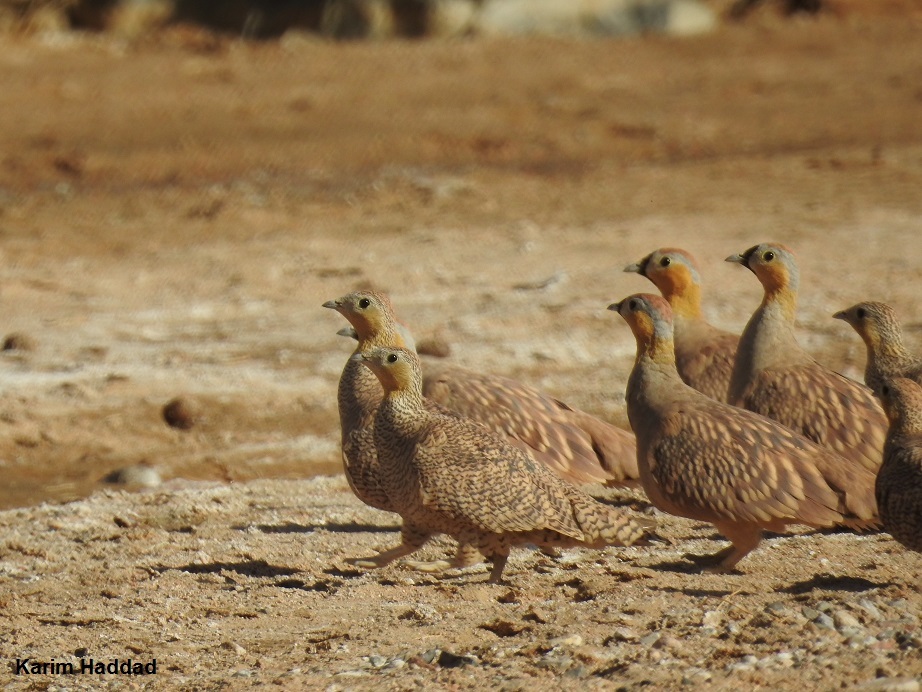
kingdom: Animalia
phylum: Chordata
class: Aves
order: Pteroclidiformes
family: Pteroclididae
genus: Pterocles
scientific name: Pterocles coronatus
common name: Crowned sandgrouse
